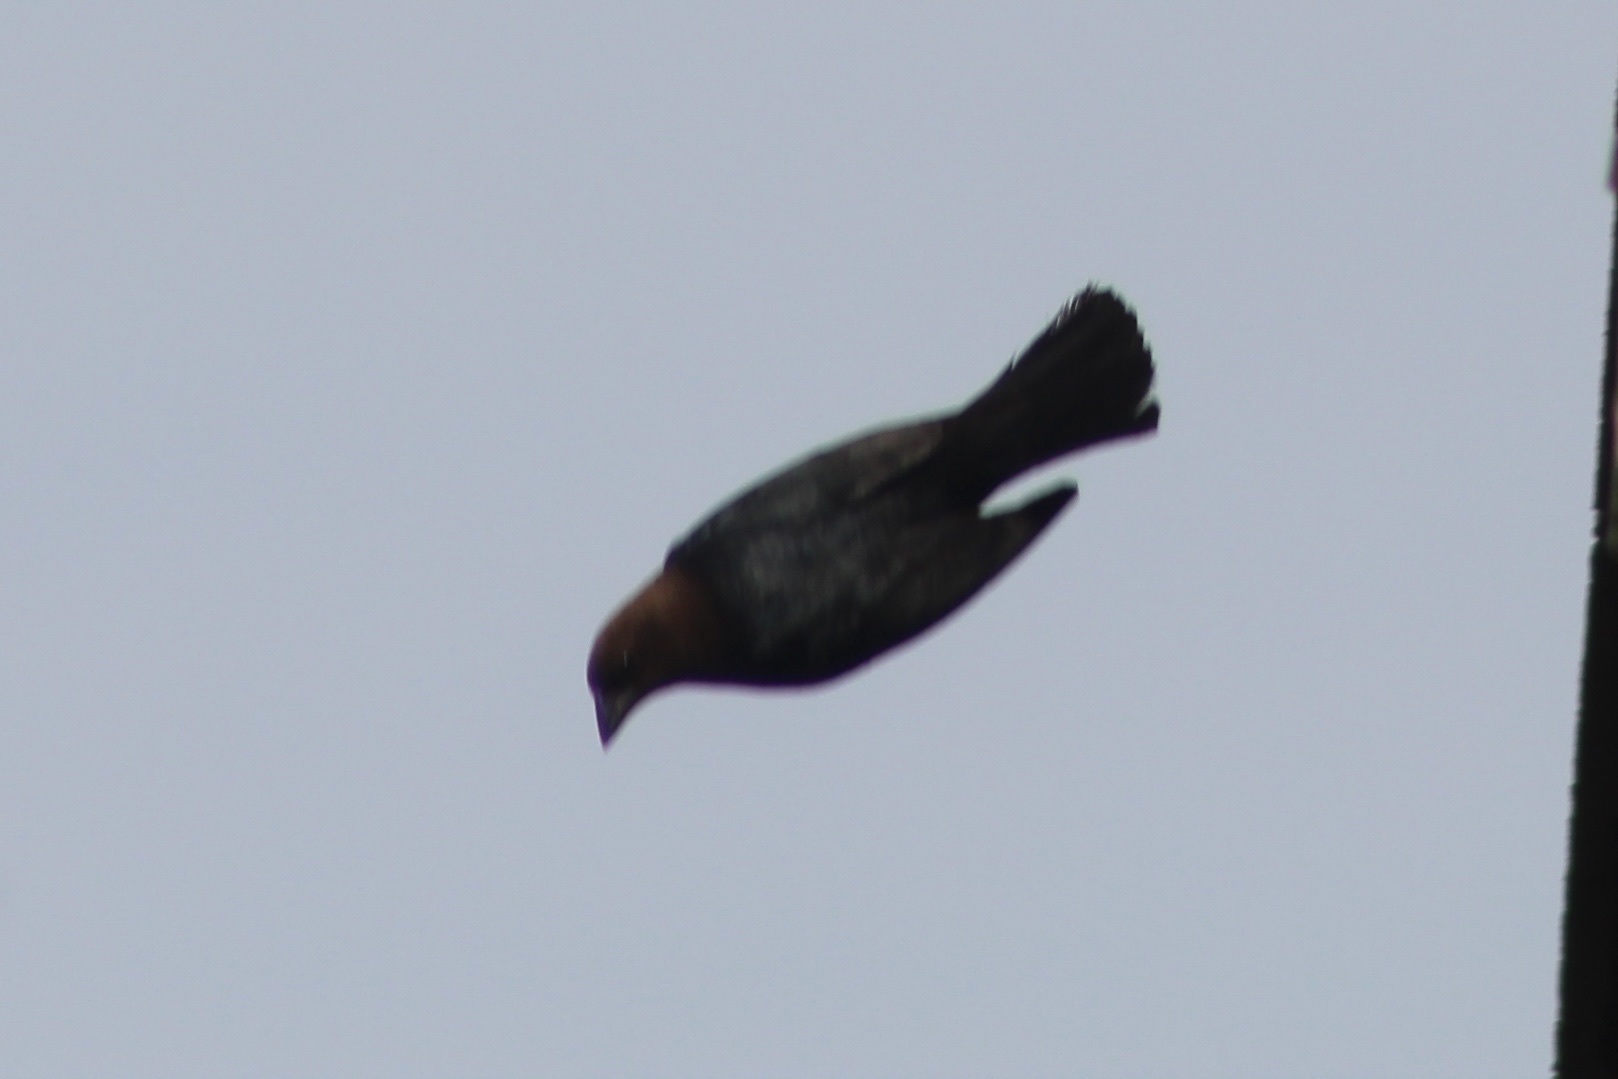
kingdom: Animalia
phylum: Chordata
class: Aves
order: Passeriformes
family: Icteridae
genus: Molothrus
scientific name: Molothrus ater
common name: Brown-headed cowbird
